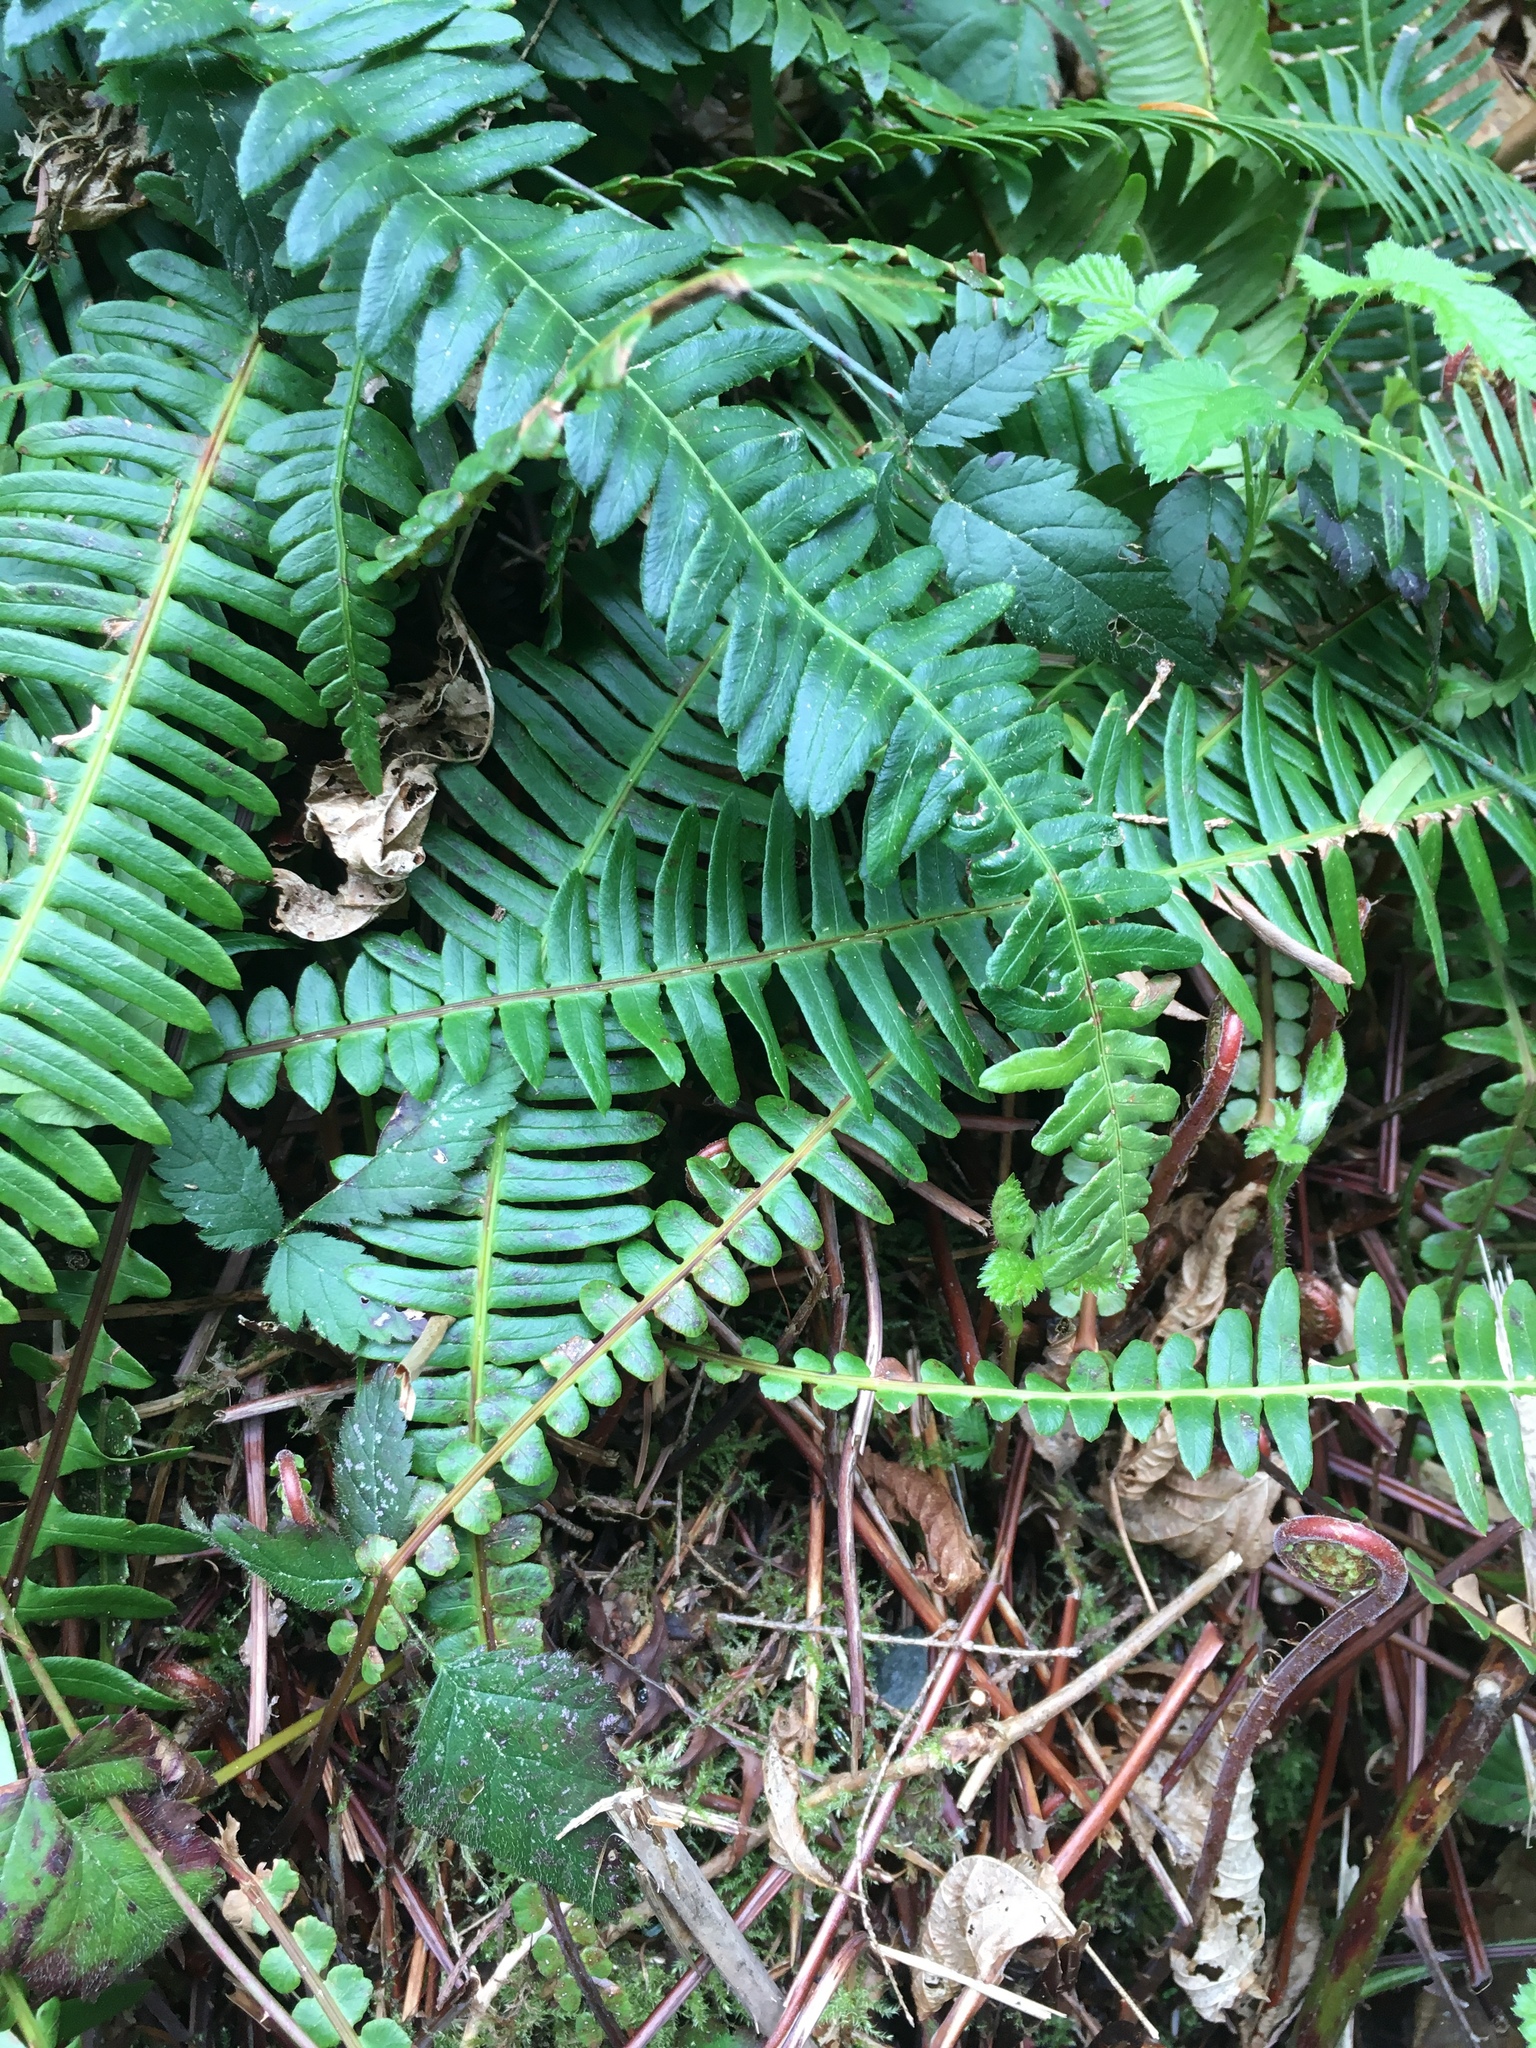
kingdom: Plantae
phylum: Tracheophyta
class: Polypodiopsida
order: Polypodiales
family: Blechnaceae
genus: Struthiopteris
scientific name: Struthiopteris spicant
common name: Deer fern
